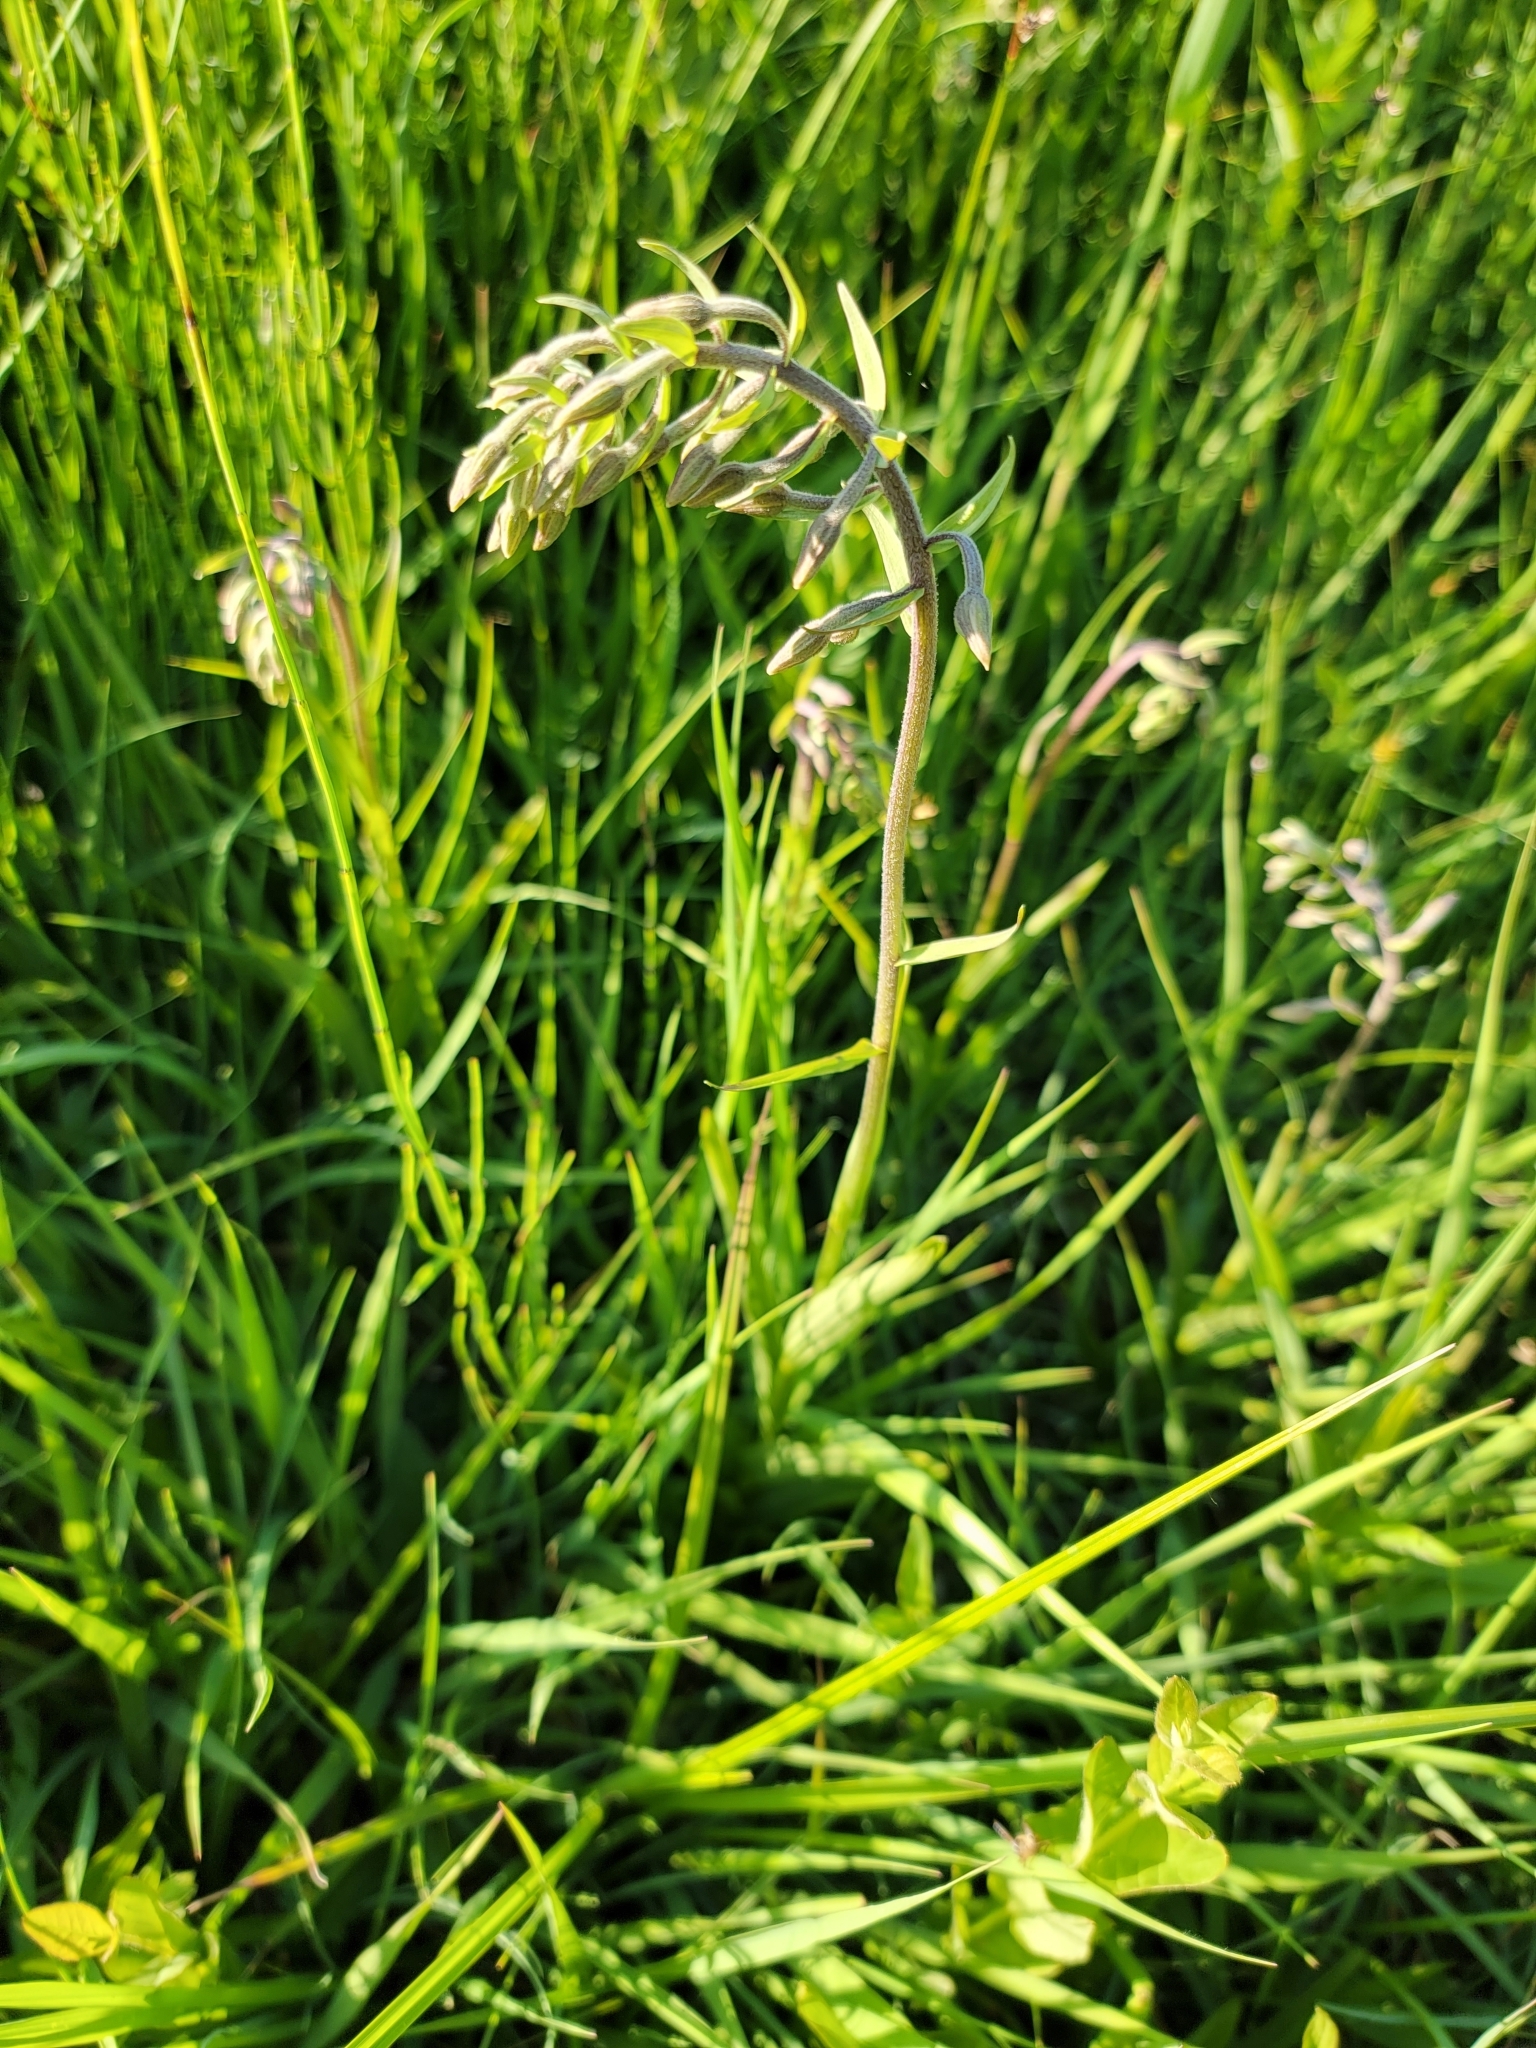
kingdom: Plantae
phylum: Tracheophyta
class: Liliopsida
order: Asparagales
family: Orchidaceae
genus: Epipactis
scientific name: Epipactis palustris
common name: Marsh helleborine
